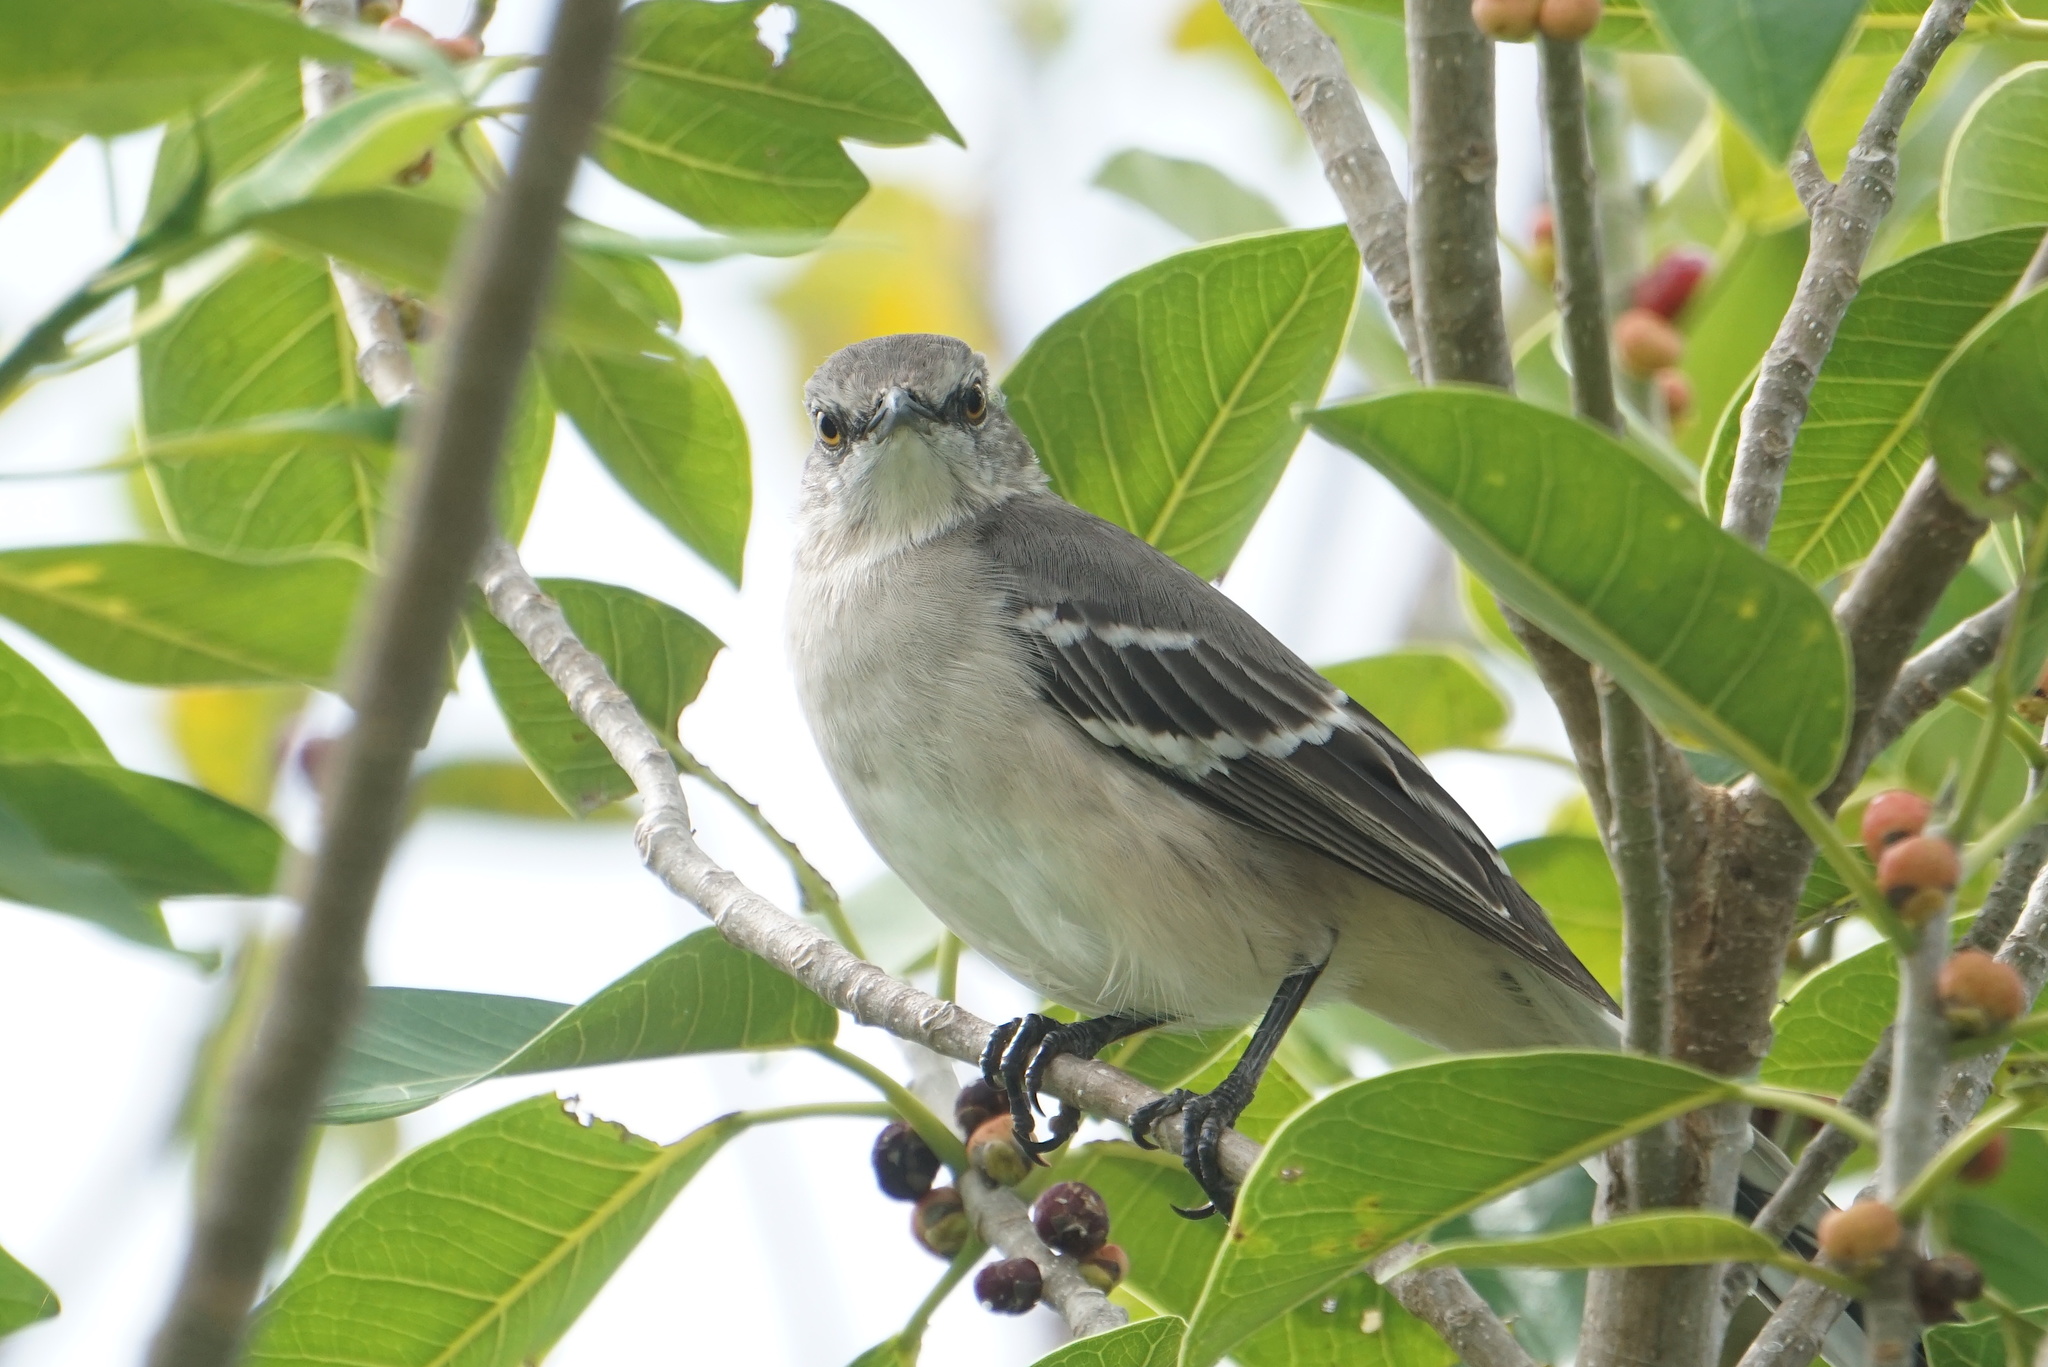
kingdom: Animalia
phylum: Chordata
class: Aves
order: Passeriformes
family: Mimidae
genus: Mimus
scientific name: Mimus polyglottos
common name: Northern mockingbird
